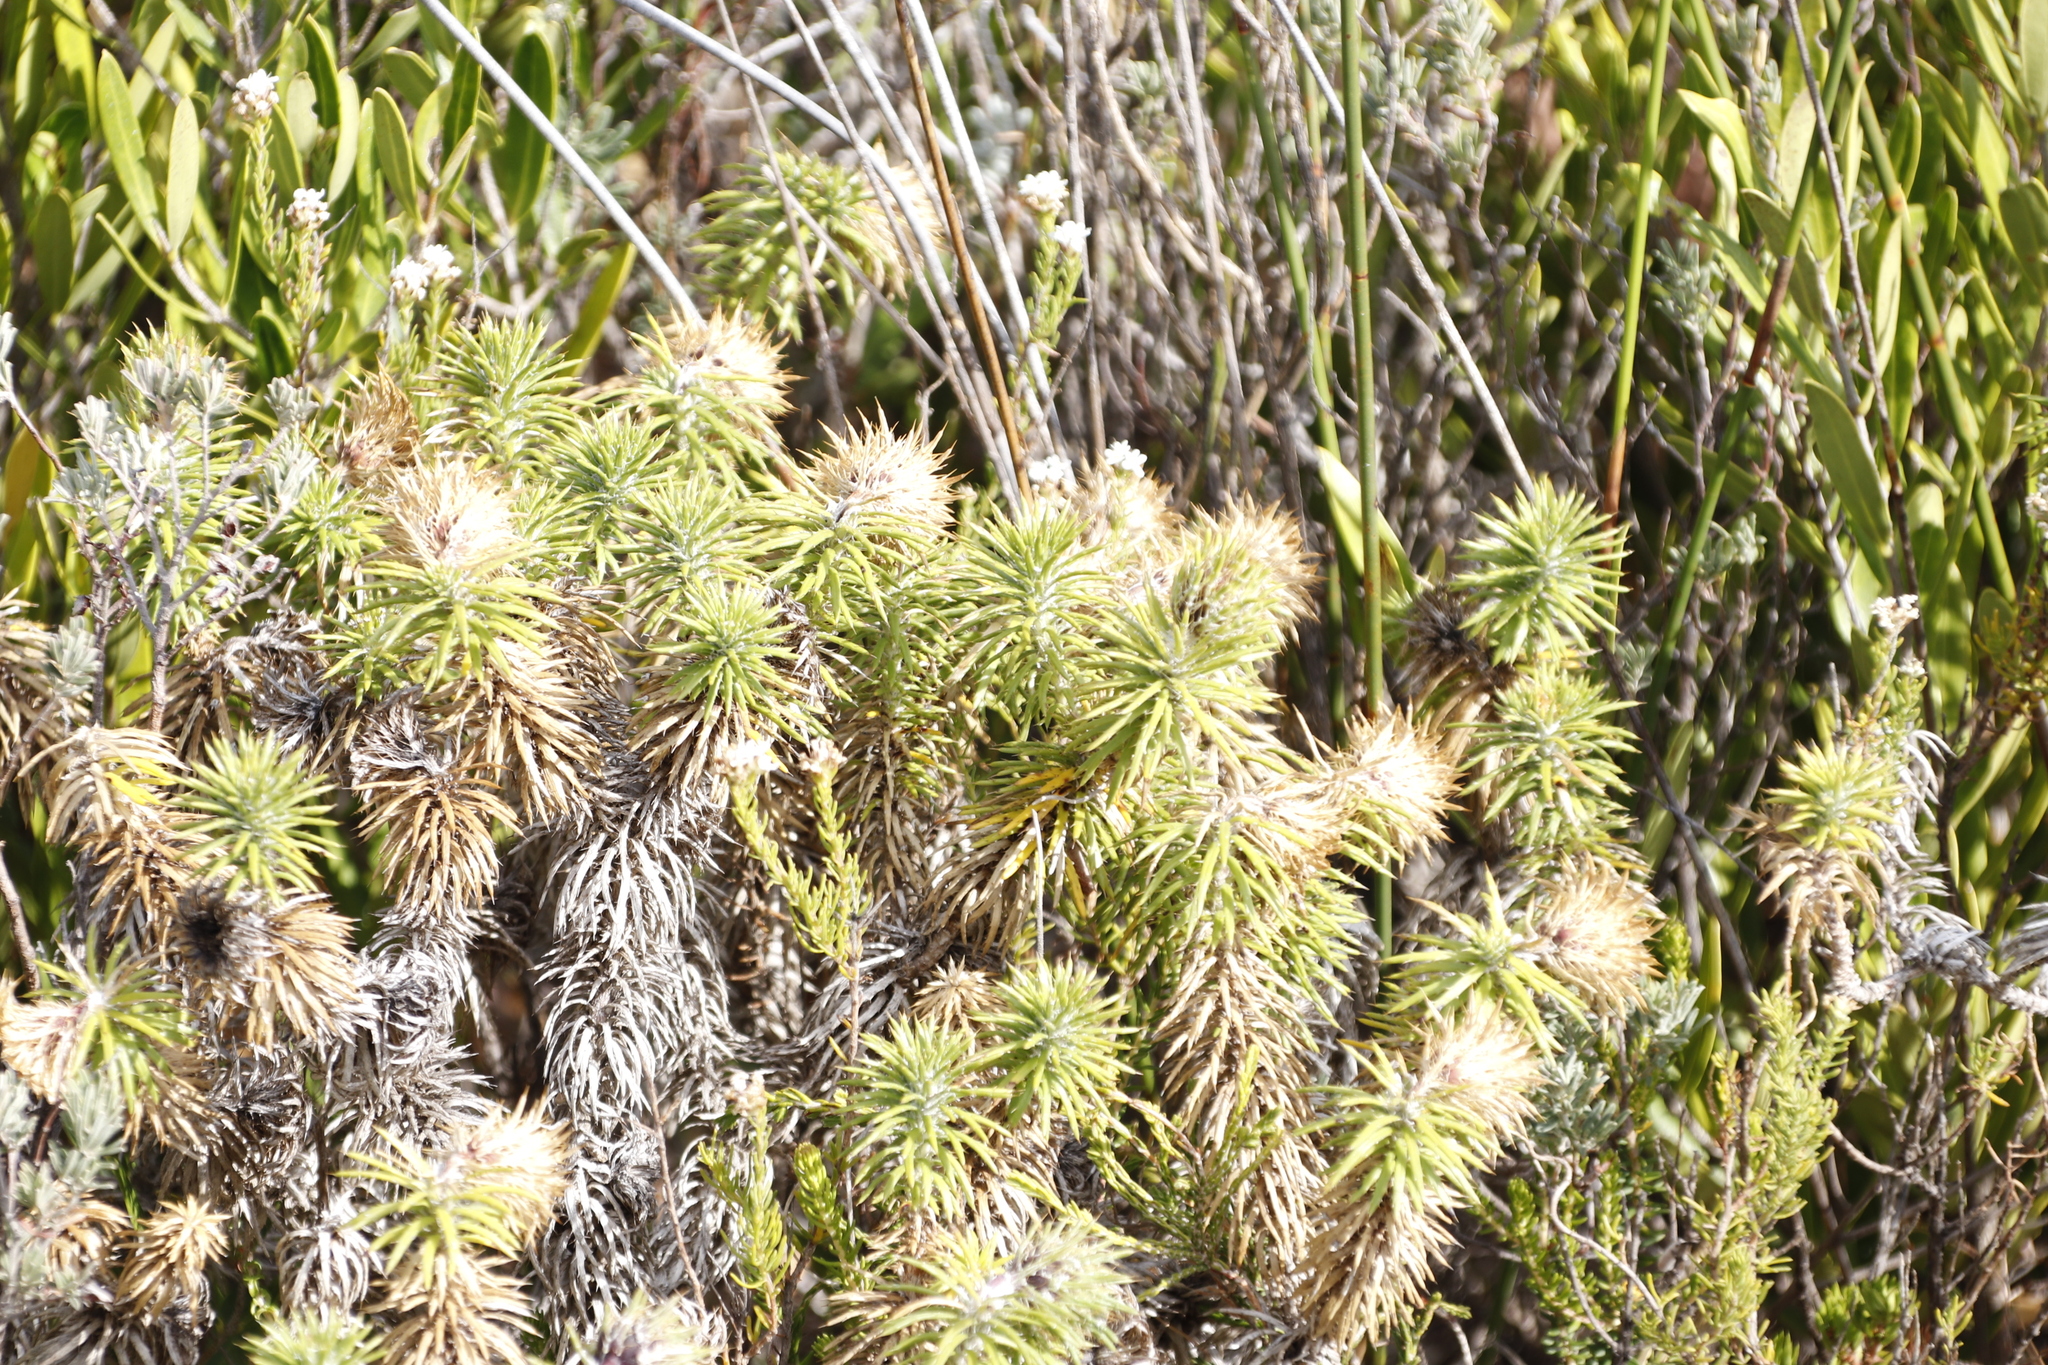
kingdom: Plantae
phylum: Tracheophyta
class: Magnoliopsida
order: Asterales
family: Asteraceae
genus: Cullumia
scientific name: Cullumia squarrosa
